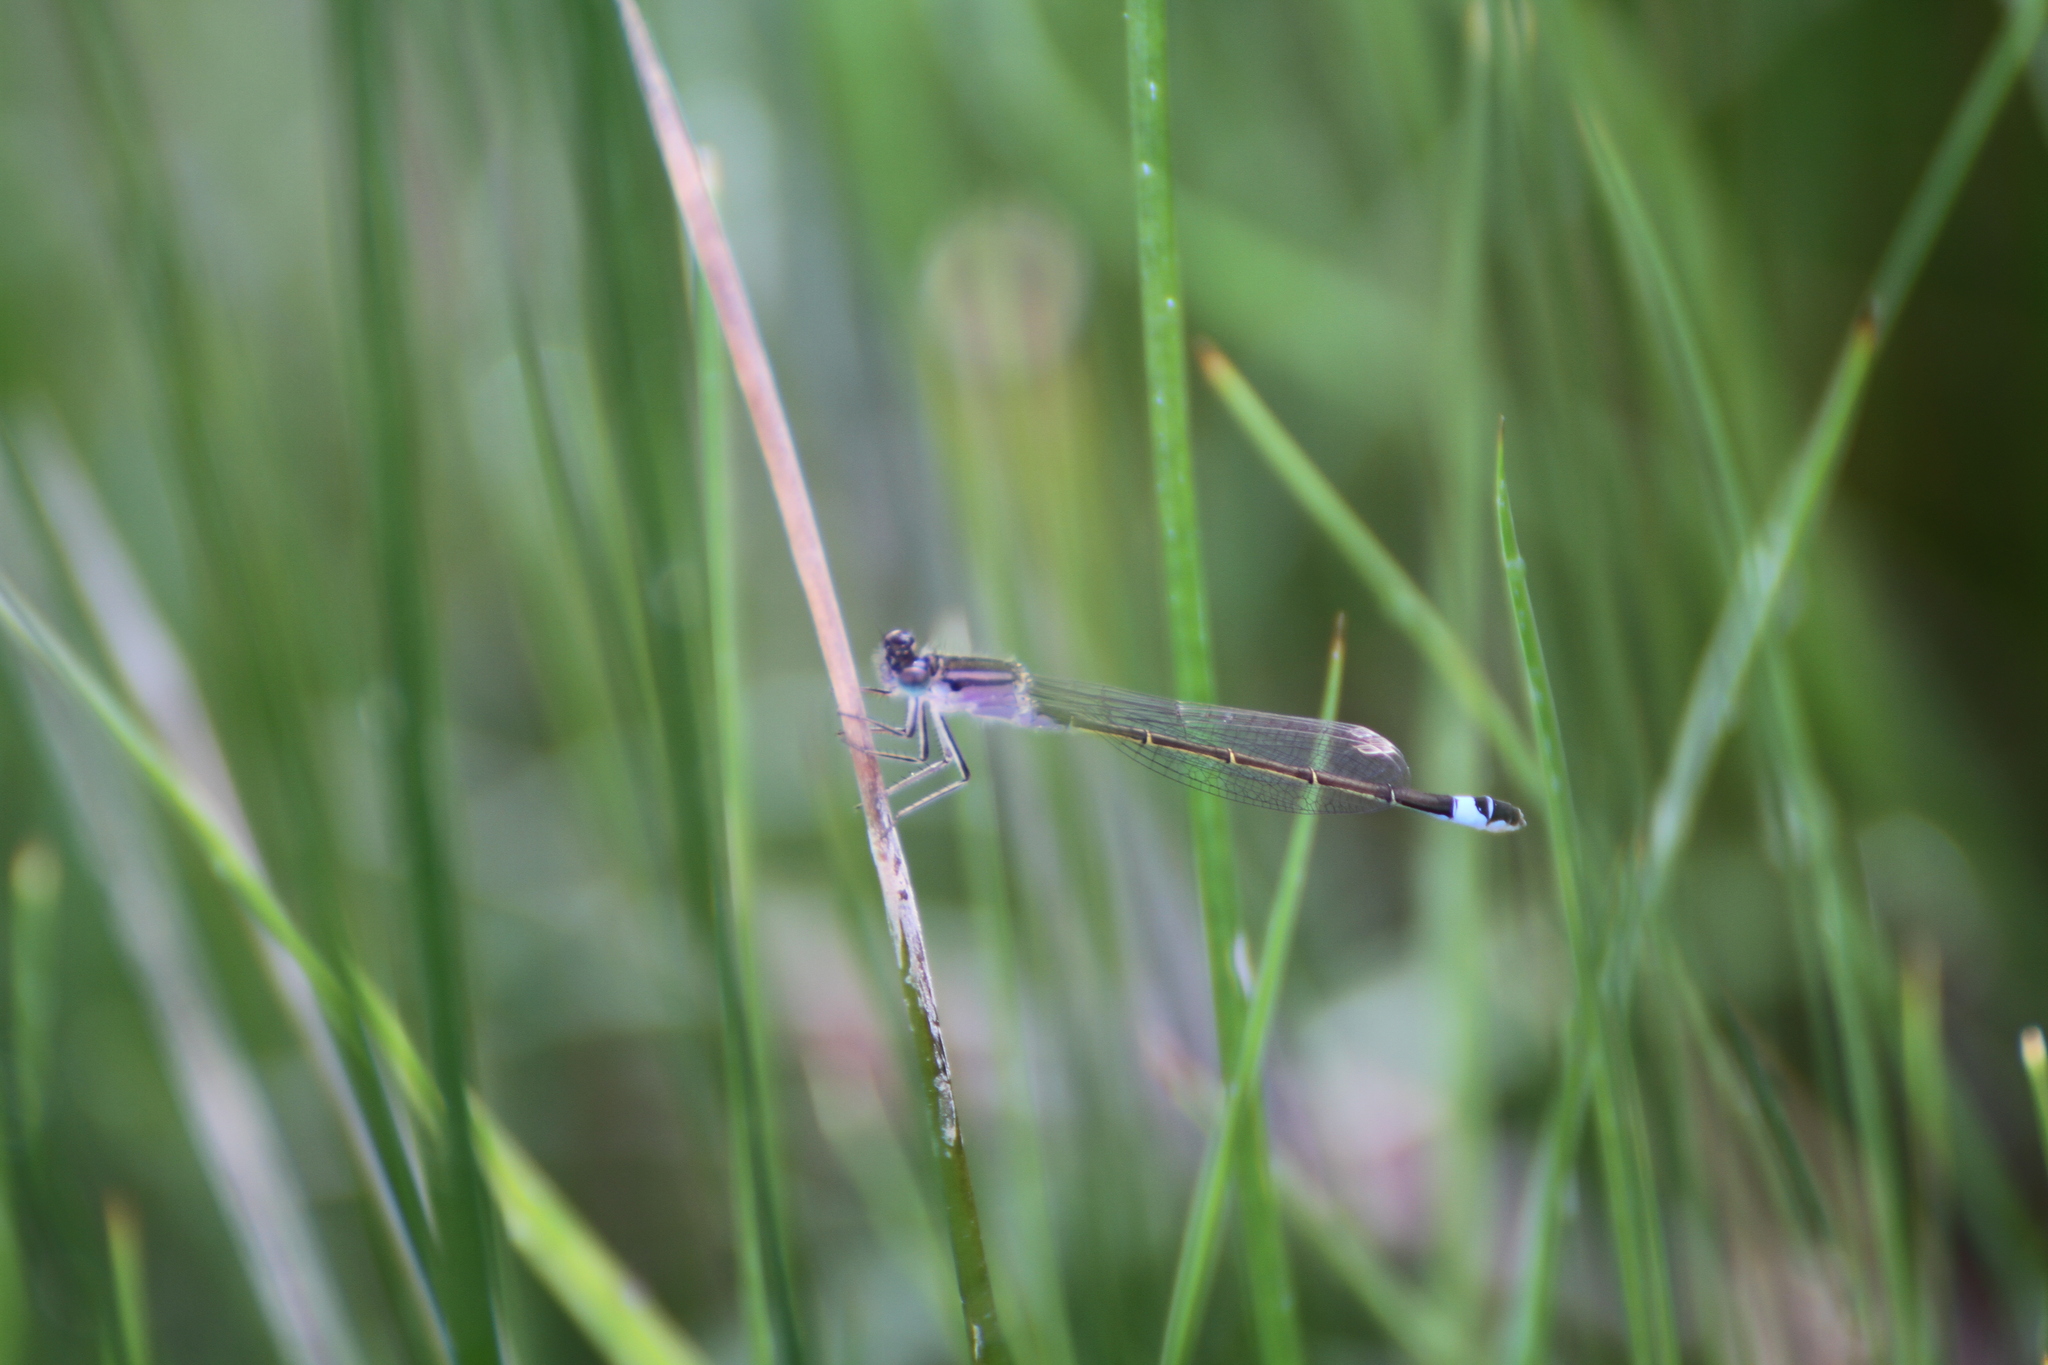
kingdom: Animalia
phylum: Arthropoda
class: Insecta
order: Odonata
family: Coenagrionidae
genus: Ischnura
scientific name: Ischnura elegans
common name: Blue-tailed damselfly
